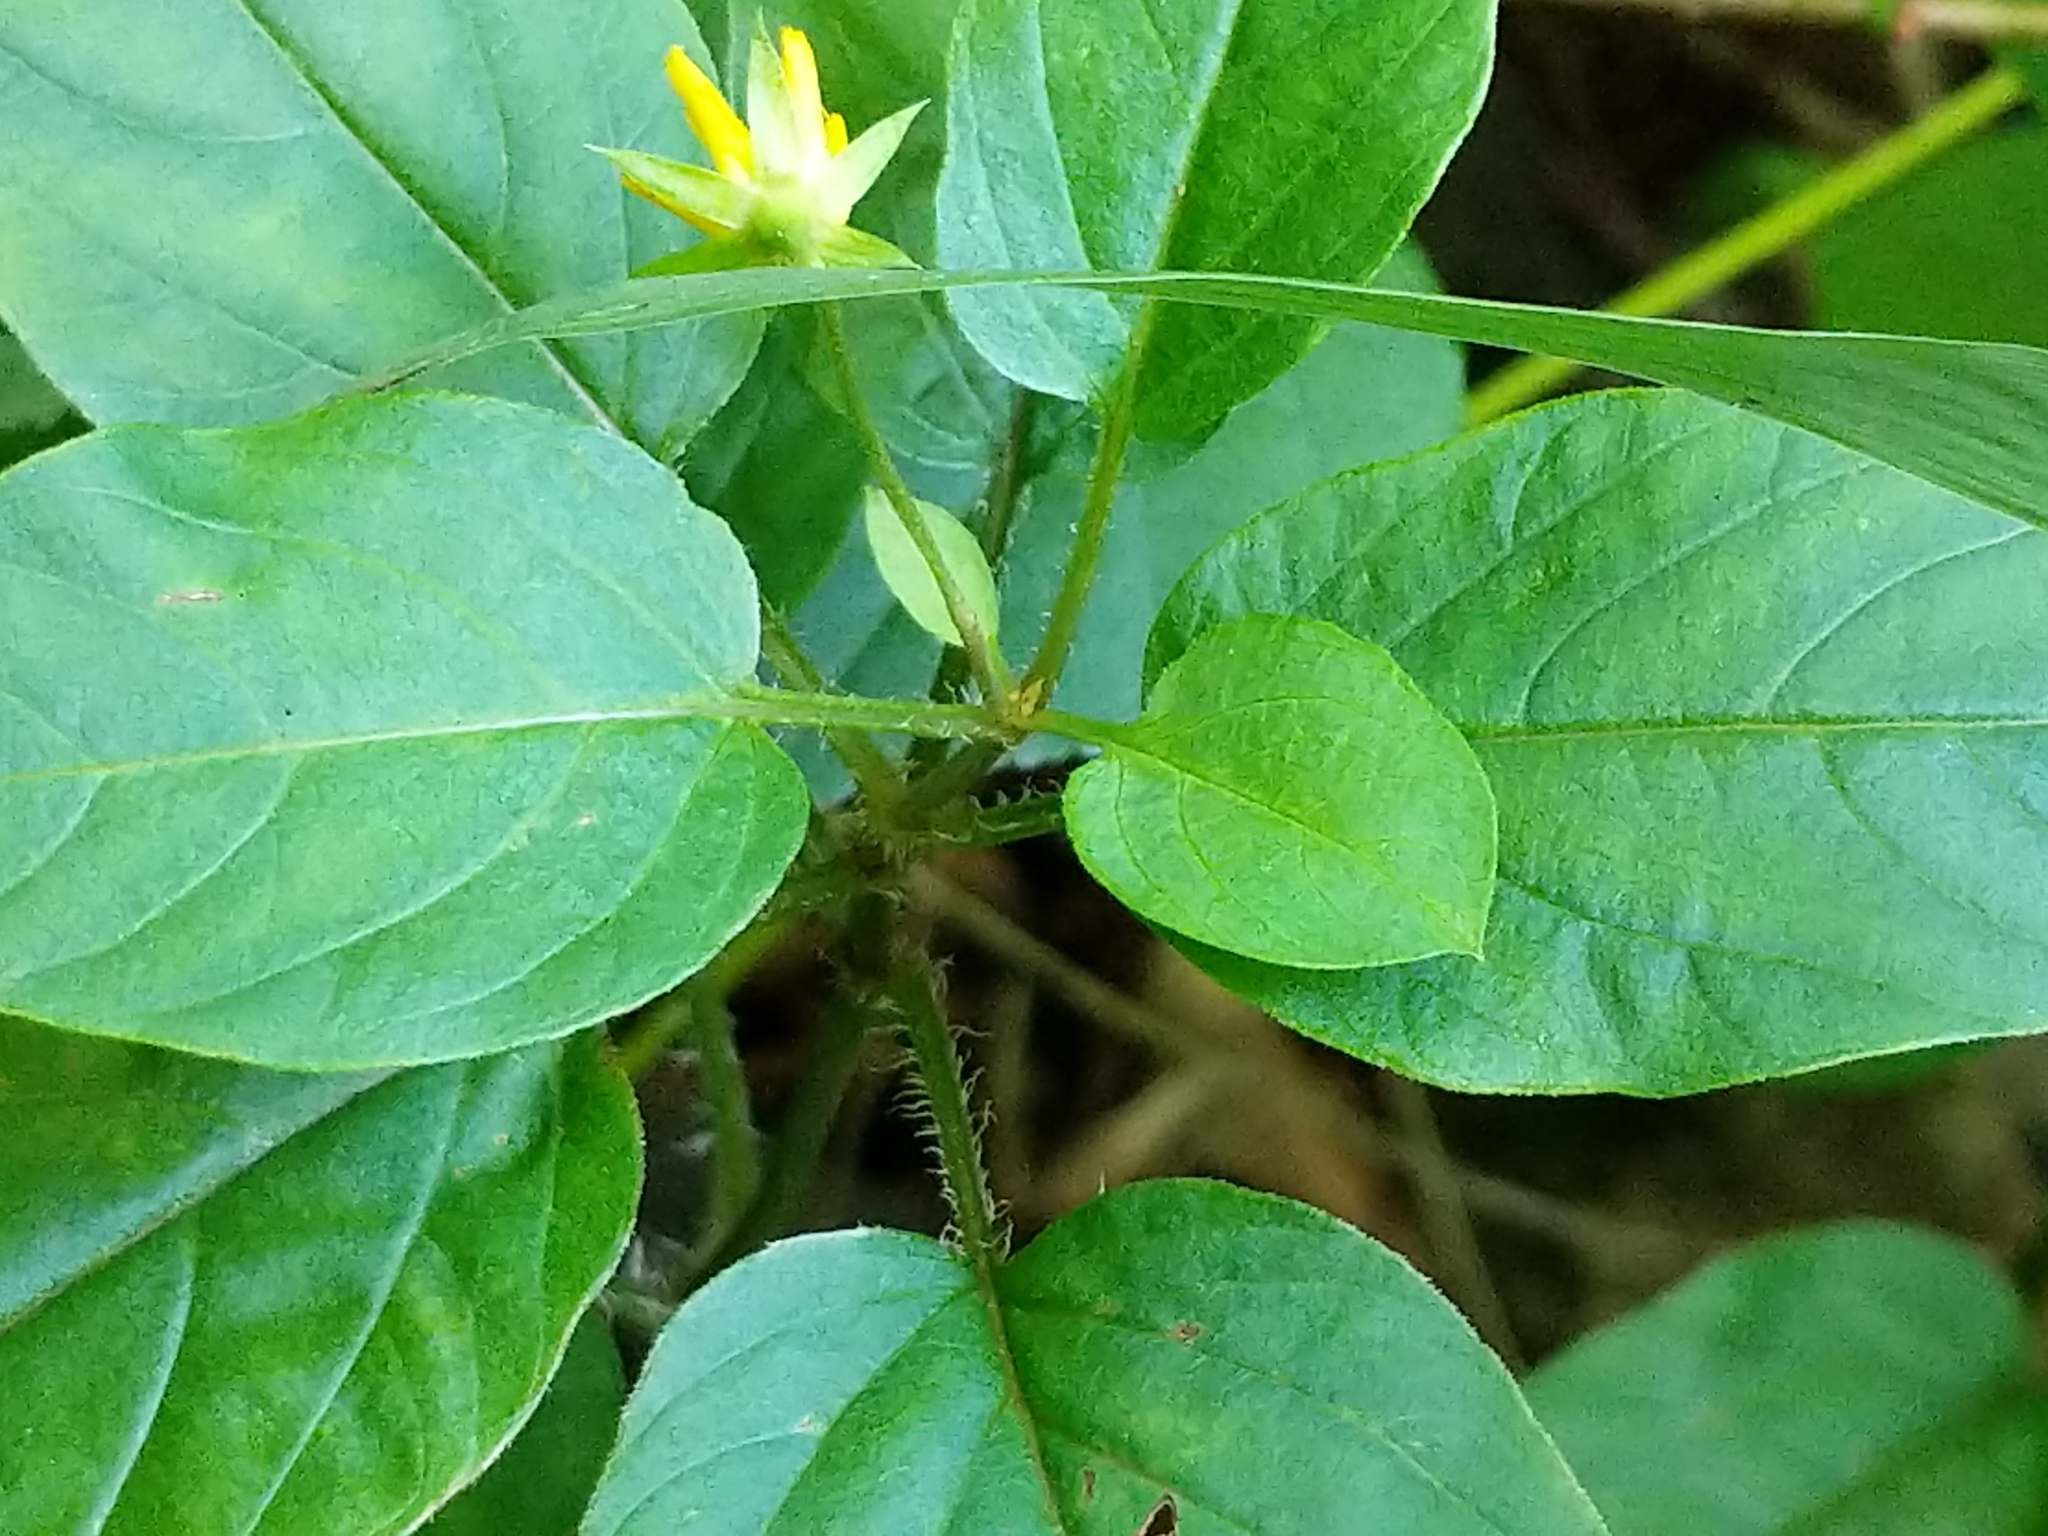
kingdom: Plantae
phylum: Tracheophyta
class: Magnoliopsida
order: Ericales
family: Primulaceae
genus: Lysimachia
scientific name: Lysimachia ciliata
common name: Fringed loosestrife
